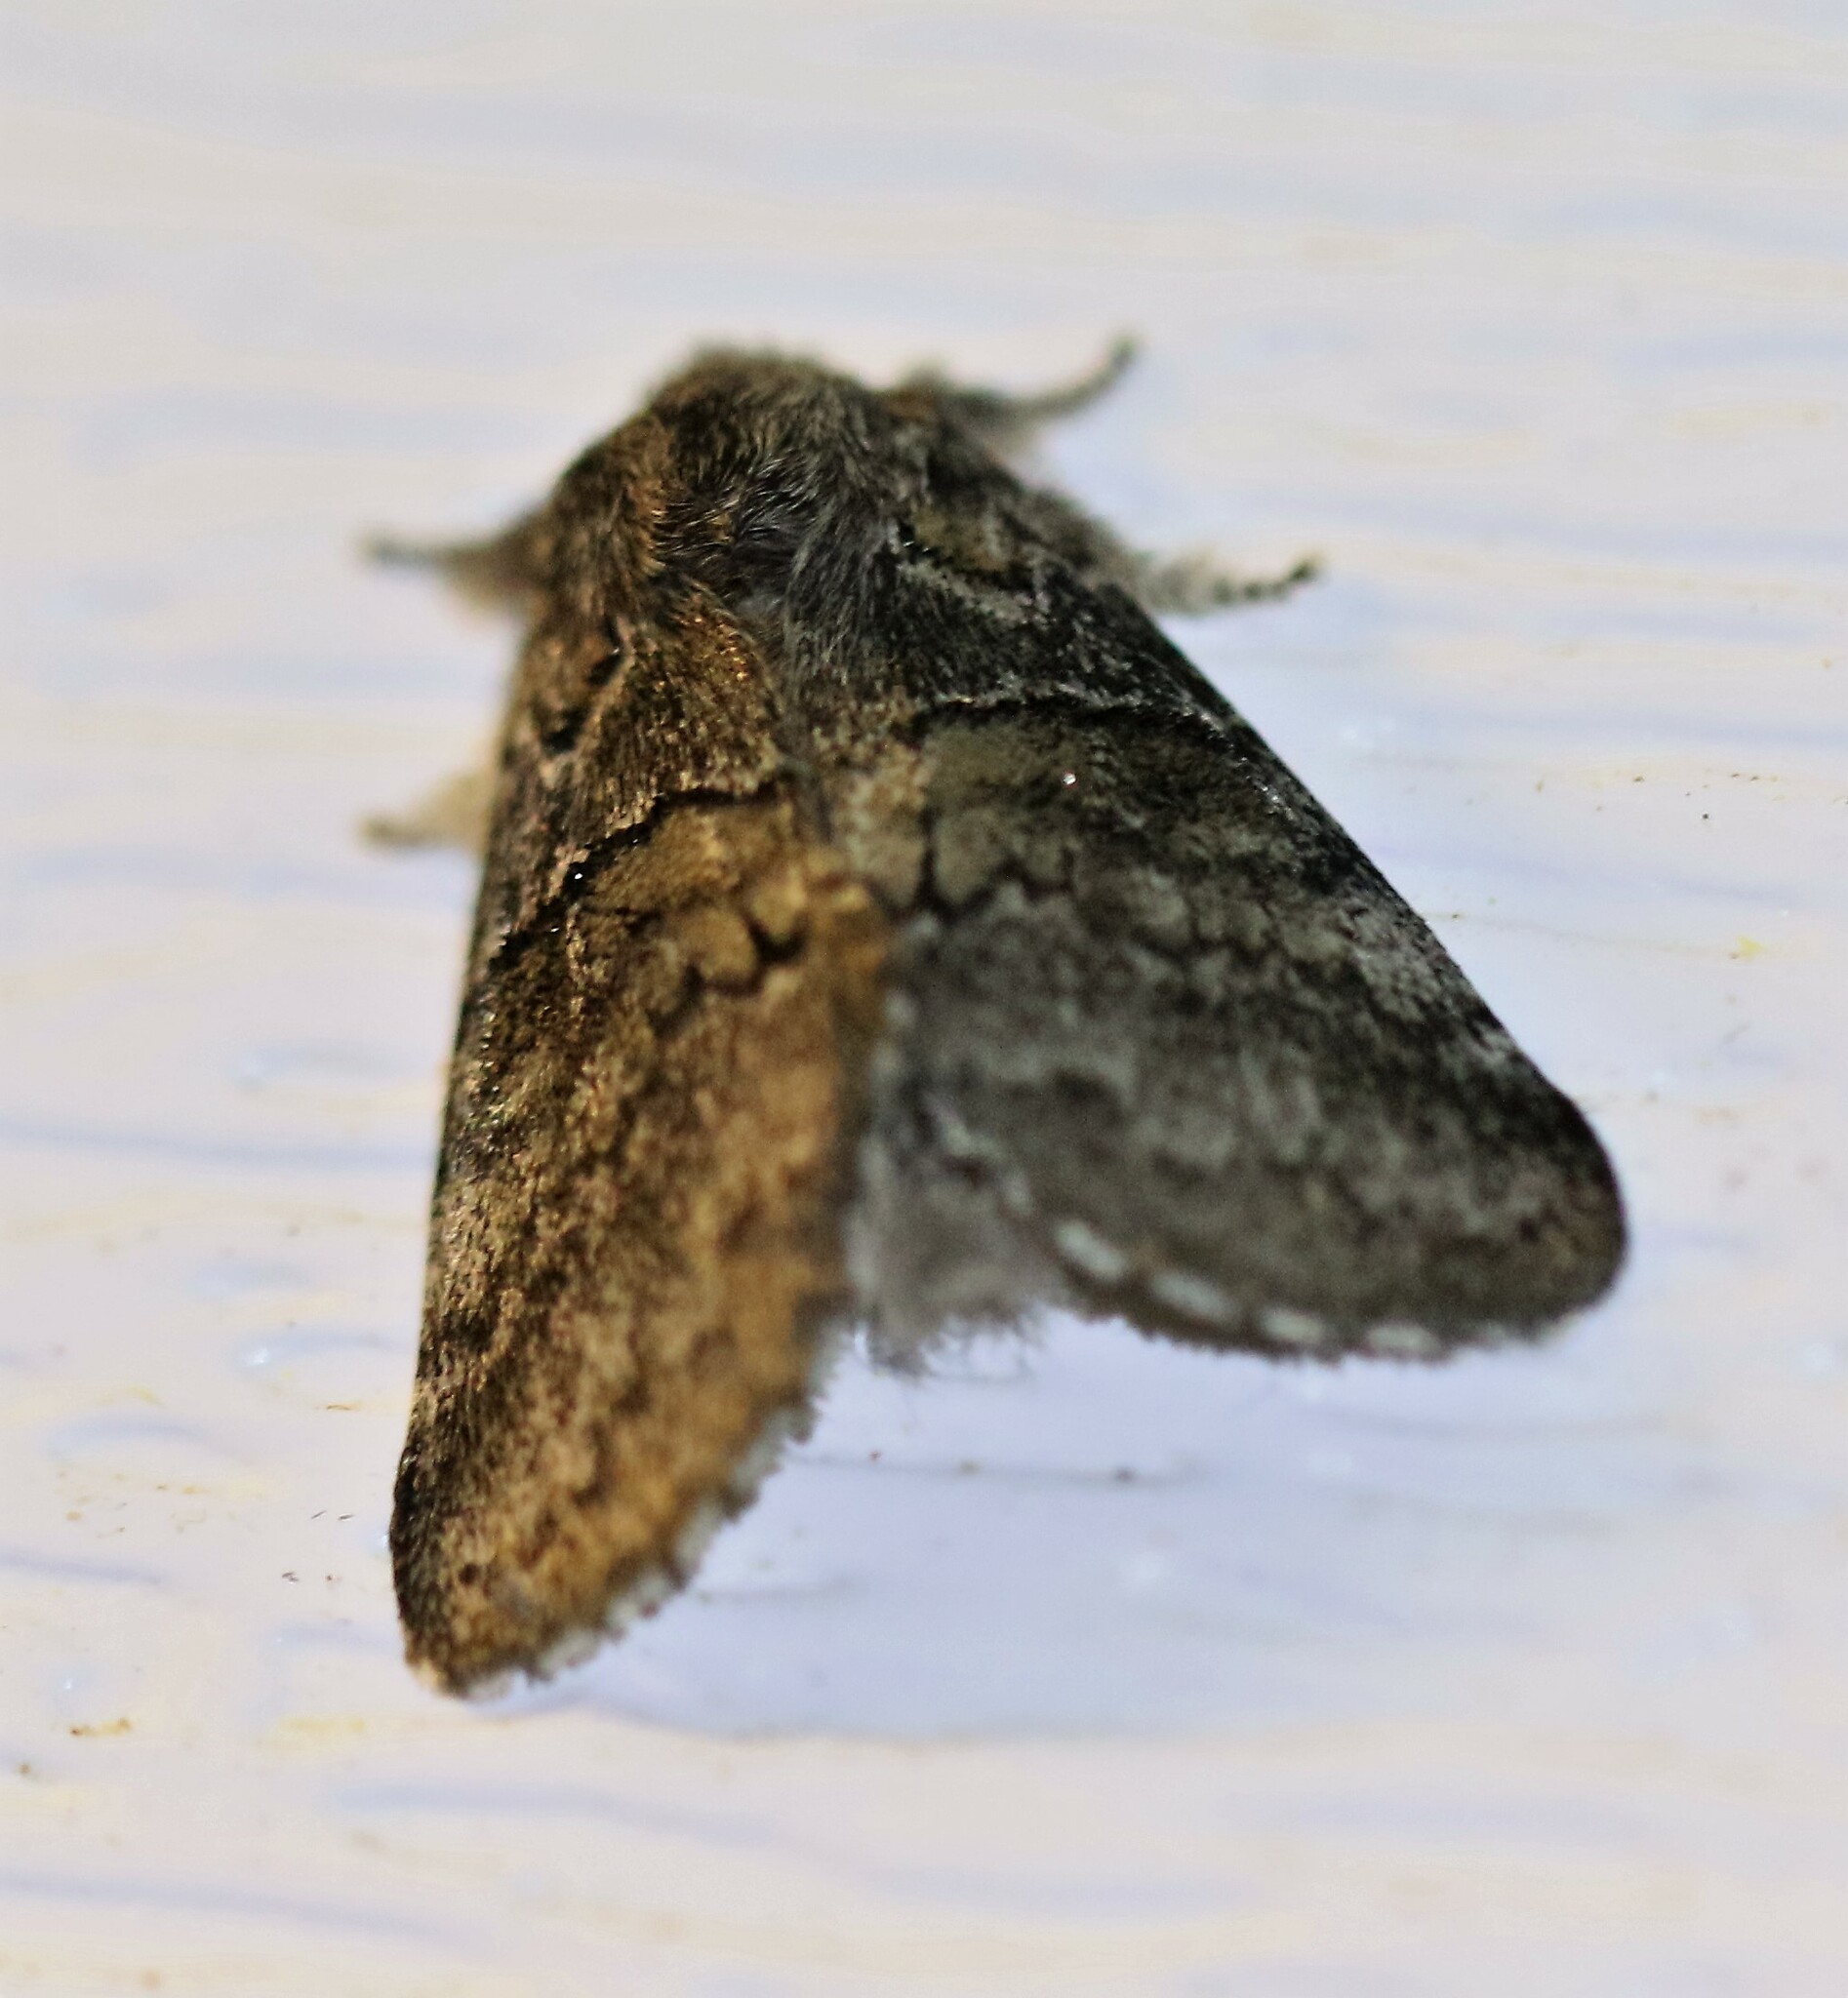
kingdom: Animalia
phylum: Arthropoda
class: Insecta
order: Lepidoptera
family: Notodontidae
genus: Gluphisia
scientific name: Gluphisia septentrionis
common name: Common gluphisia
